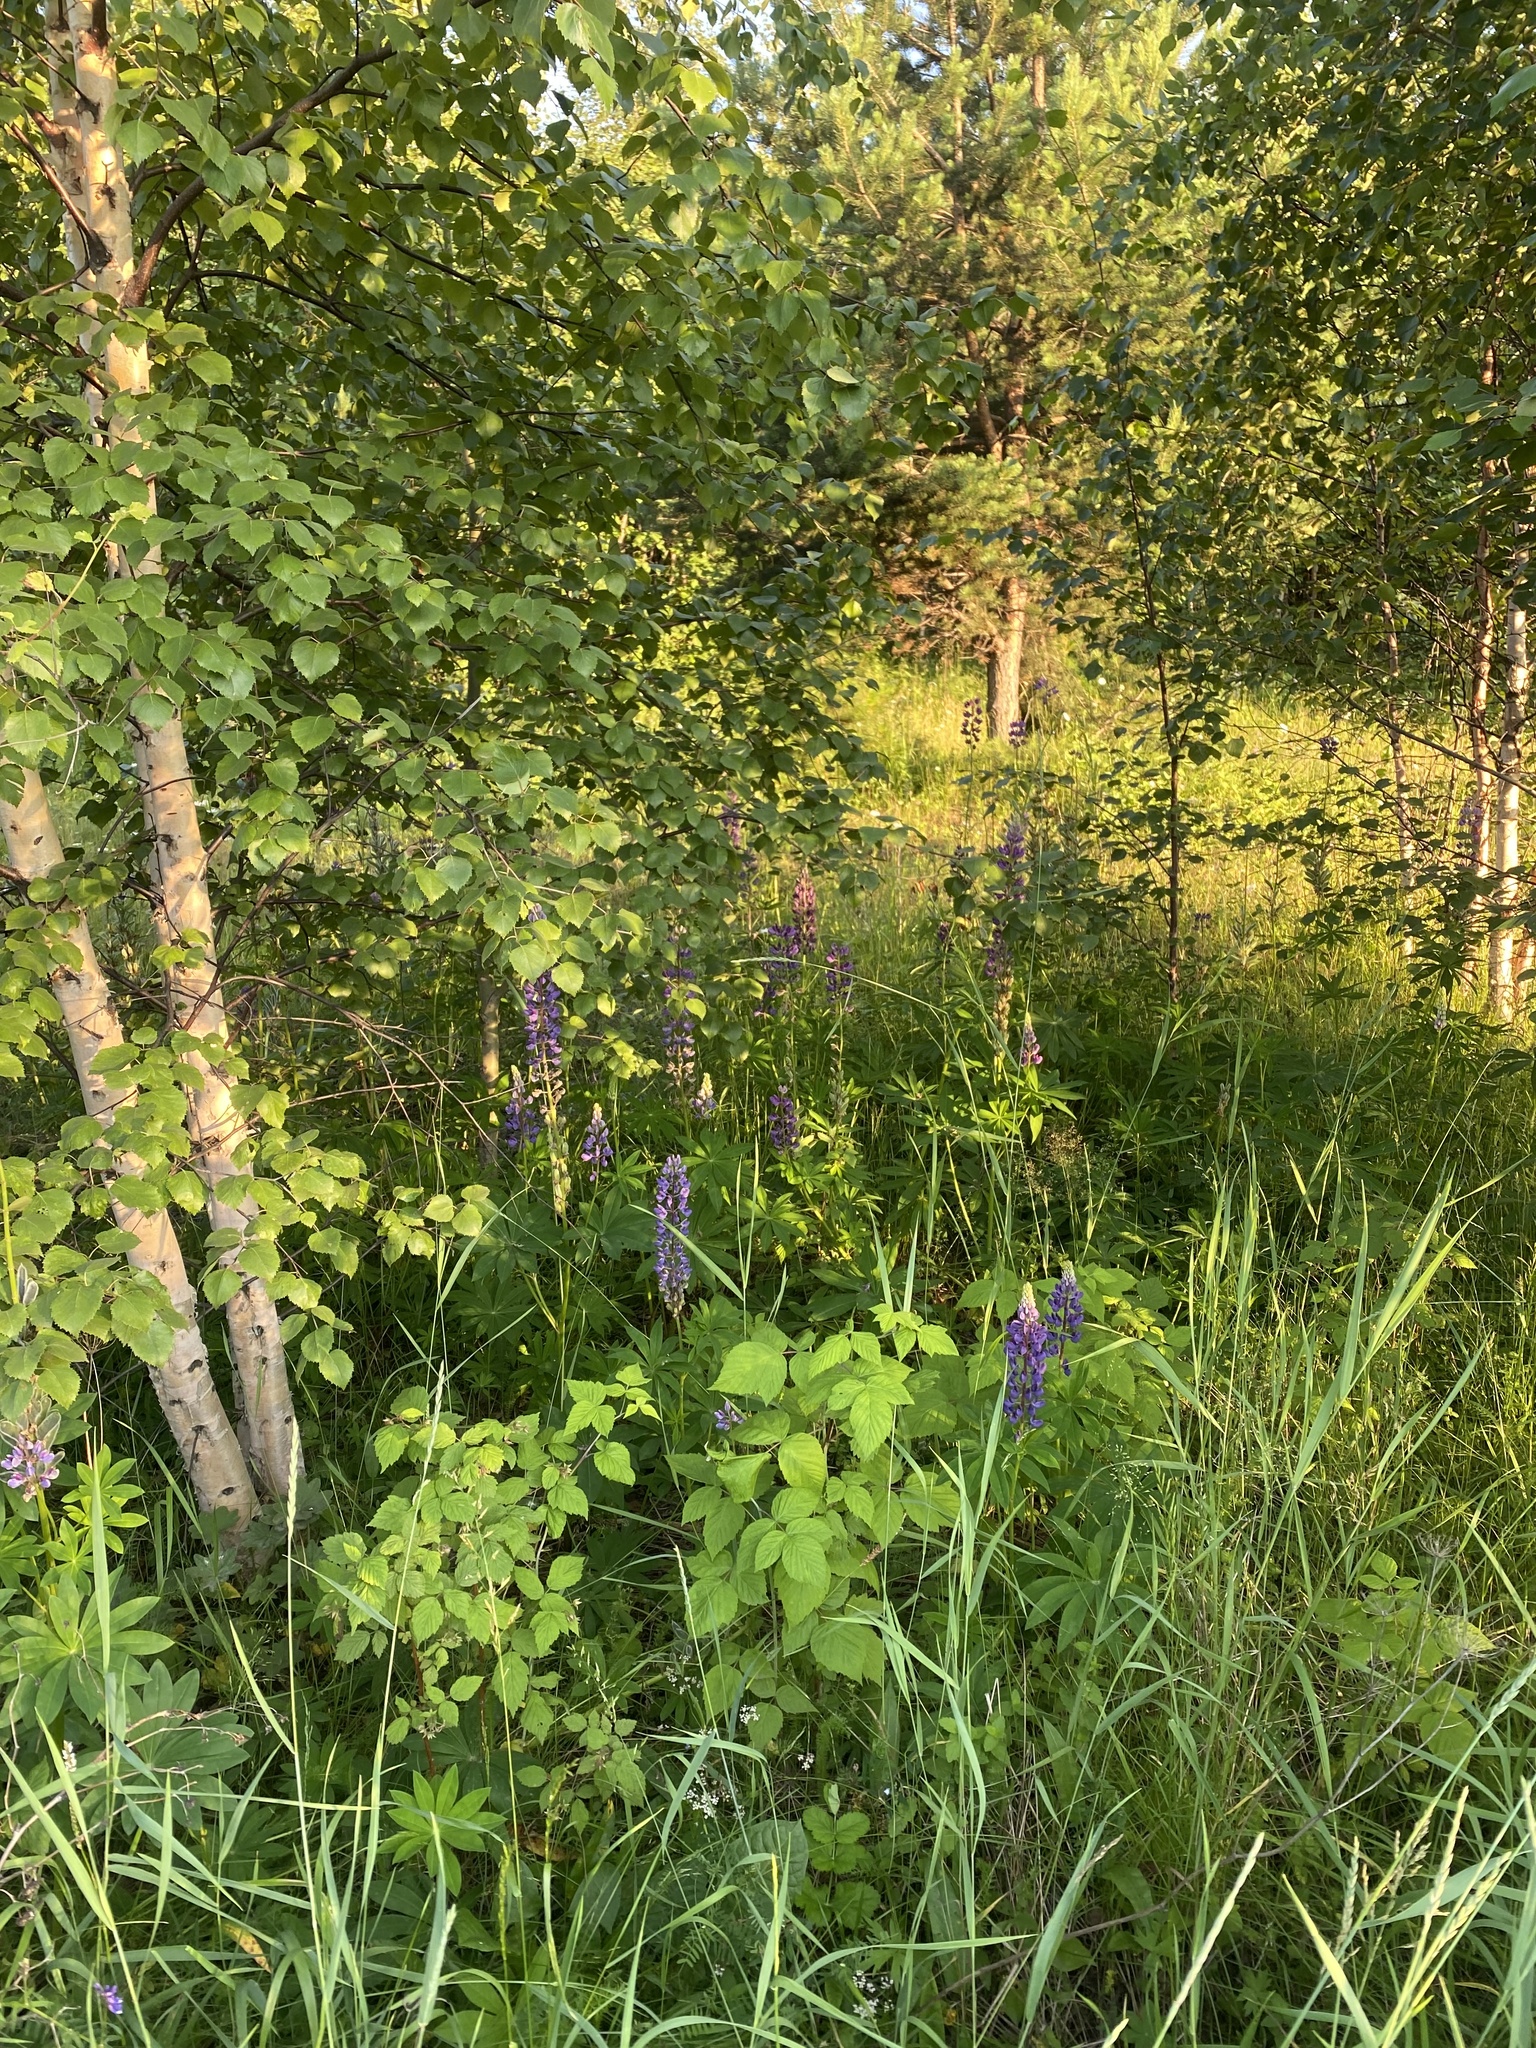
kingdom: Plantae
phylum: Tracheophyta
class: Magnoliopsida
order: Fabales
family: Fabaceae
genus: Lupinus
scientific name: Lupinus polyphyllus
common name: Garden lupin
